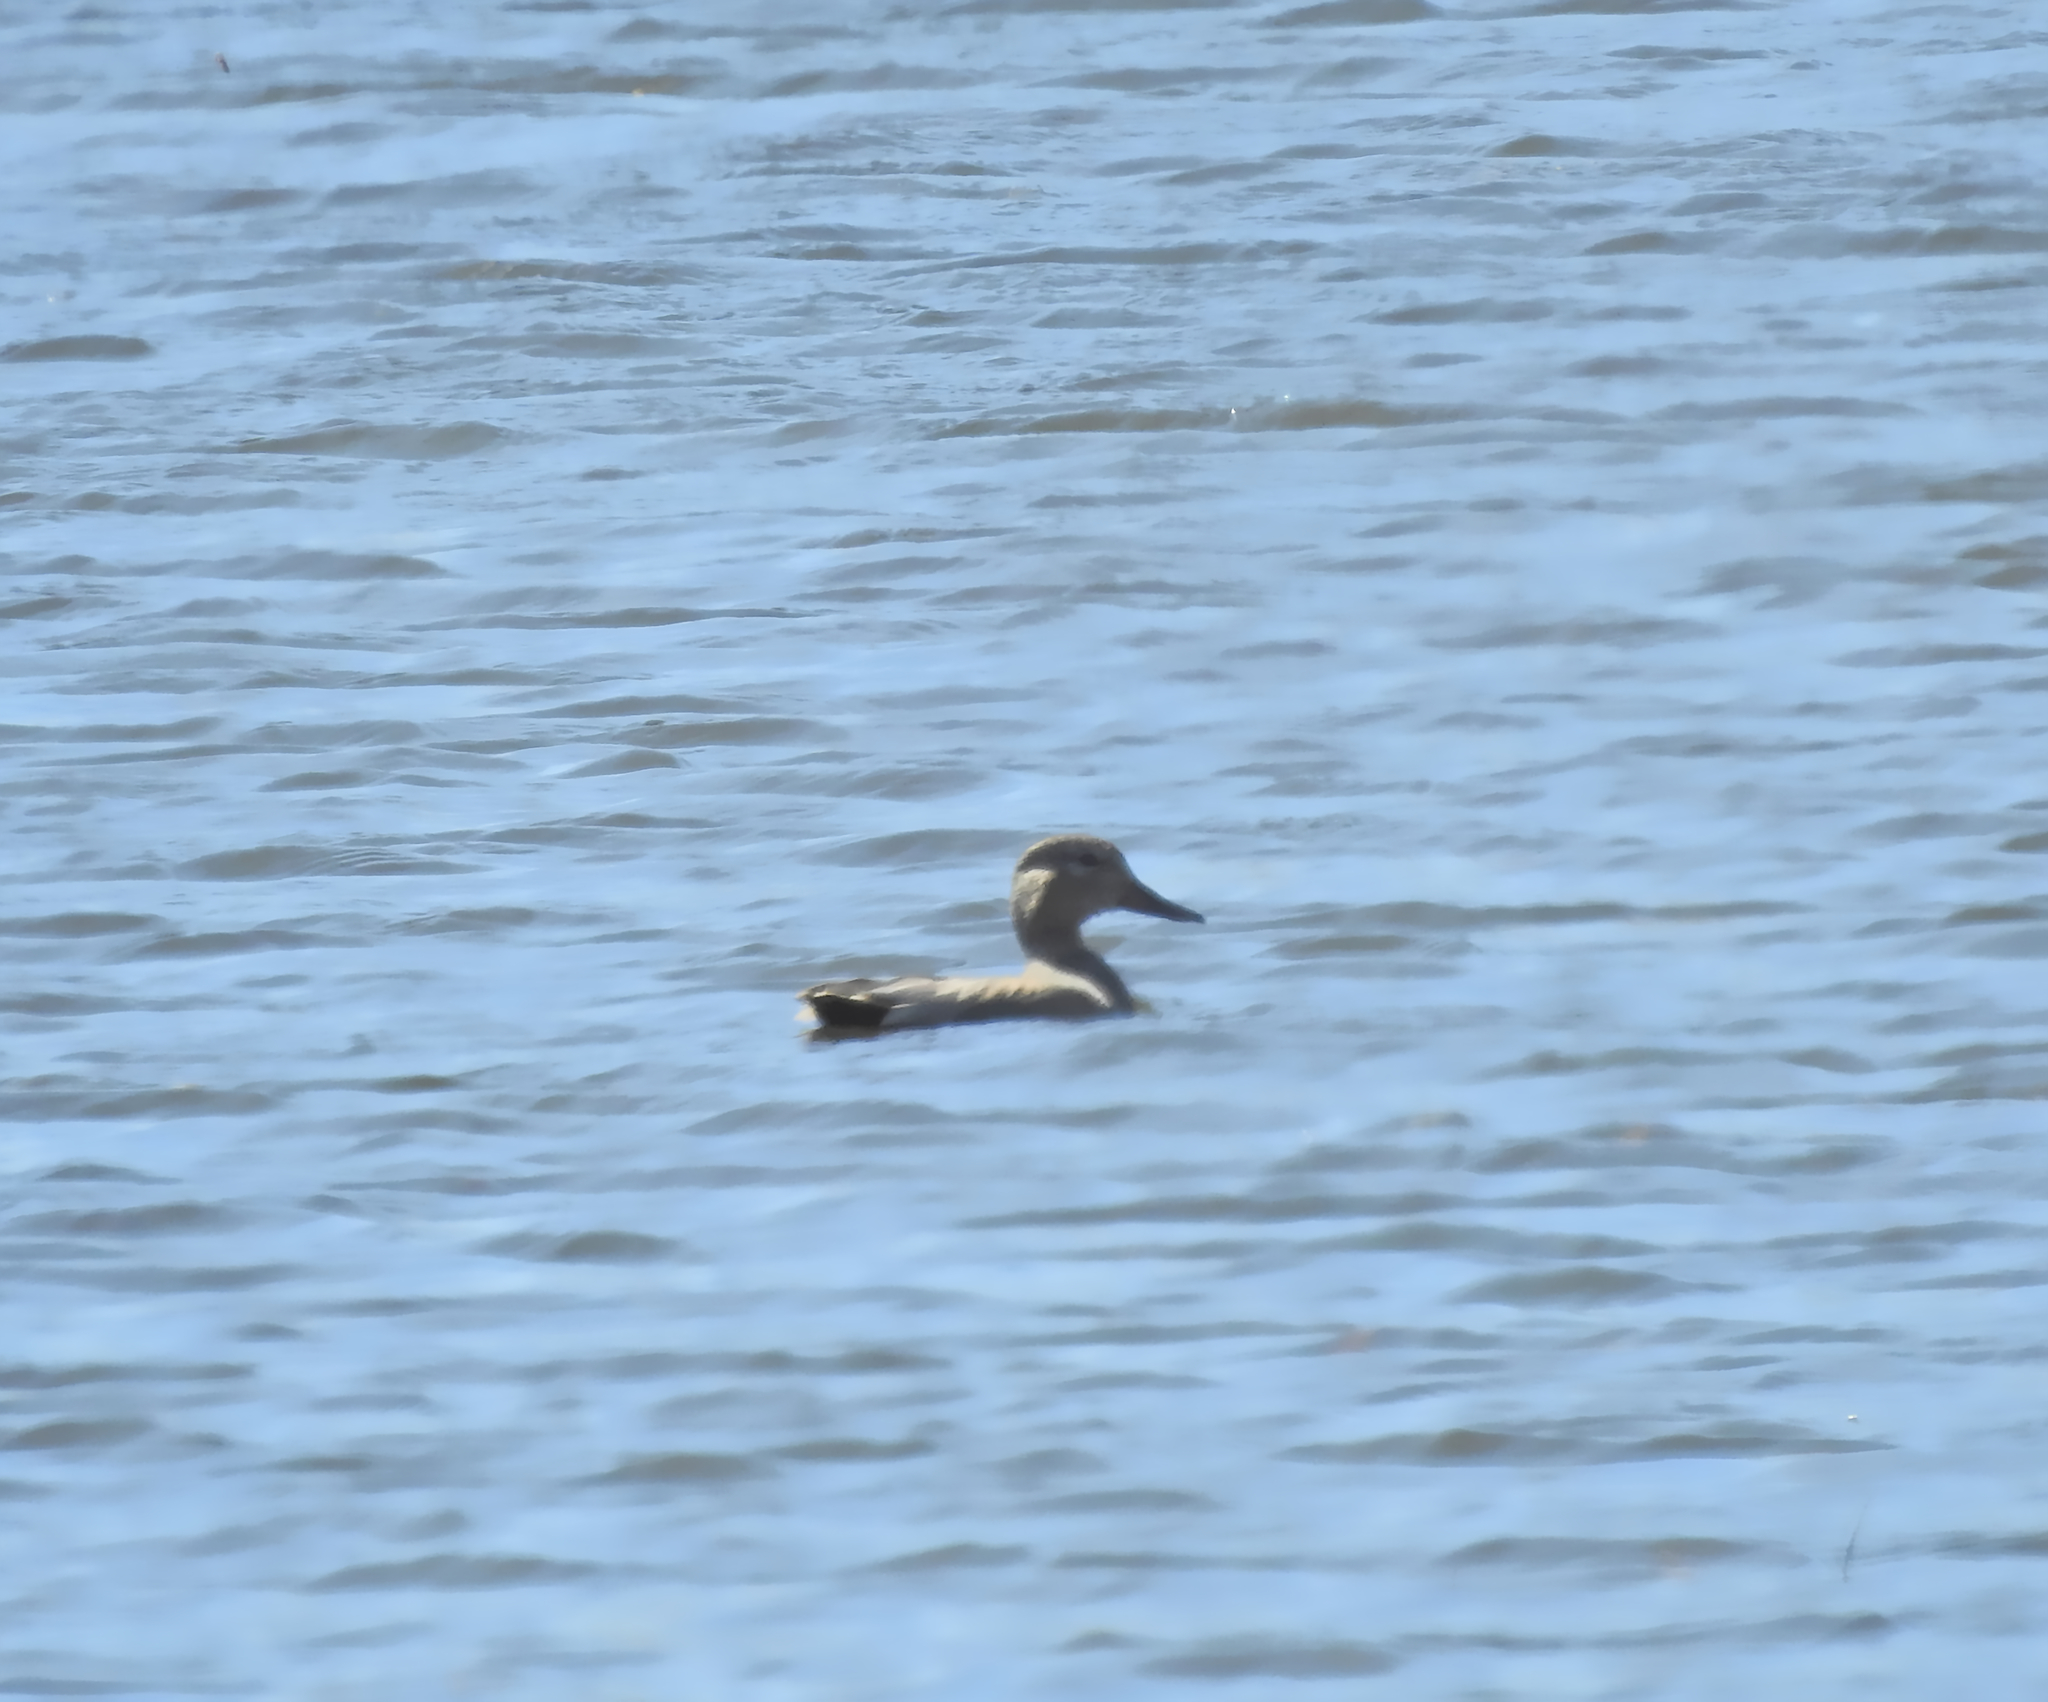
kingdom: Animalia
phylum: Chordata
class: Aves
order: Anseriformes
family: Anatidae
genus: Mareca
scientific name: Mareca strepera
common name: Gadwall
